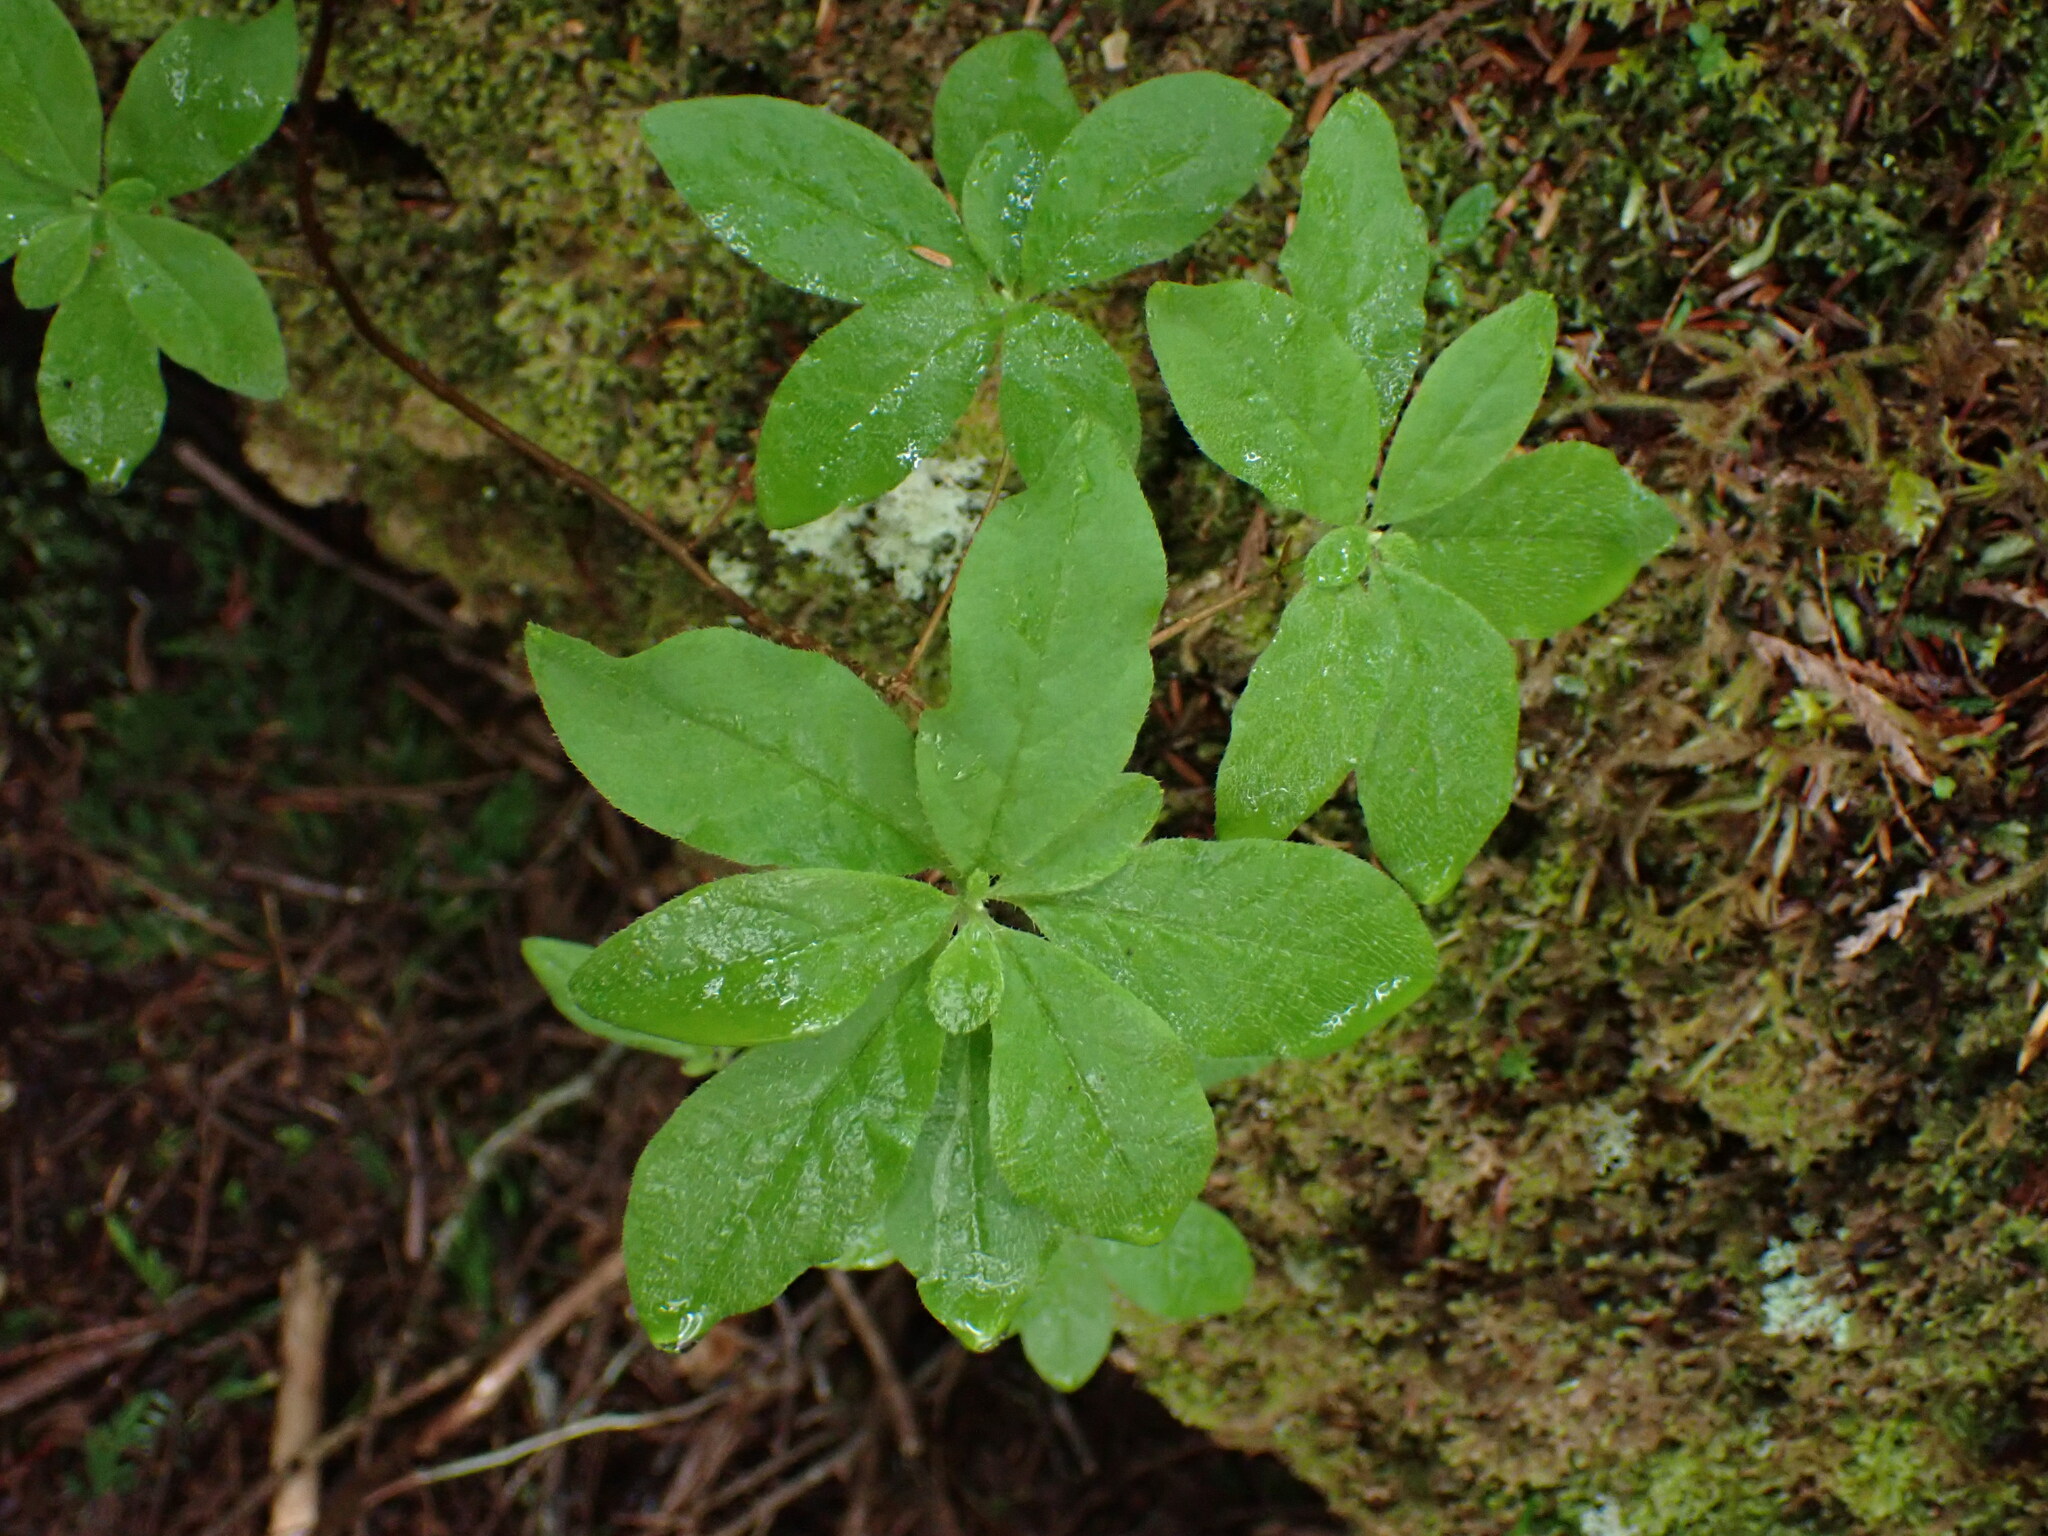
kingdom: Plantae
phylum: Tracheophyta
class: Magnoliopsida
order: Ericales
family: Ericaceae
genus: Rhododendron
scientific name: Rhododendron menziesii
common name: Pacific menziesia
